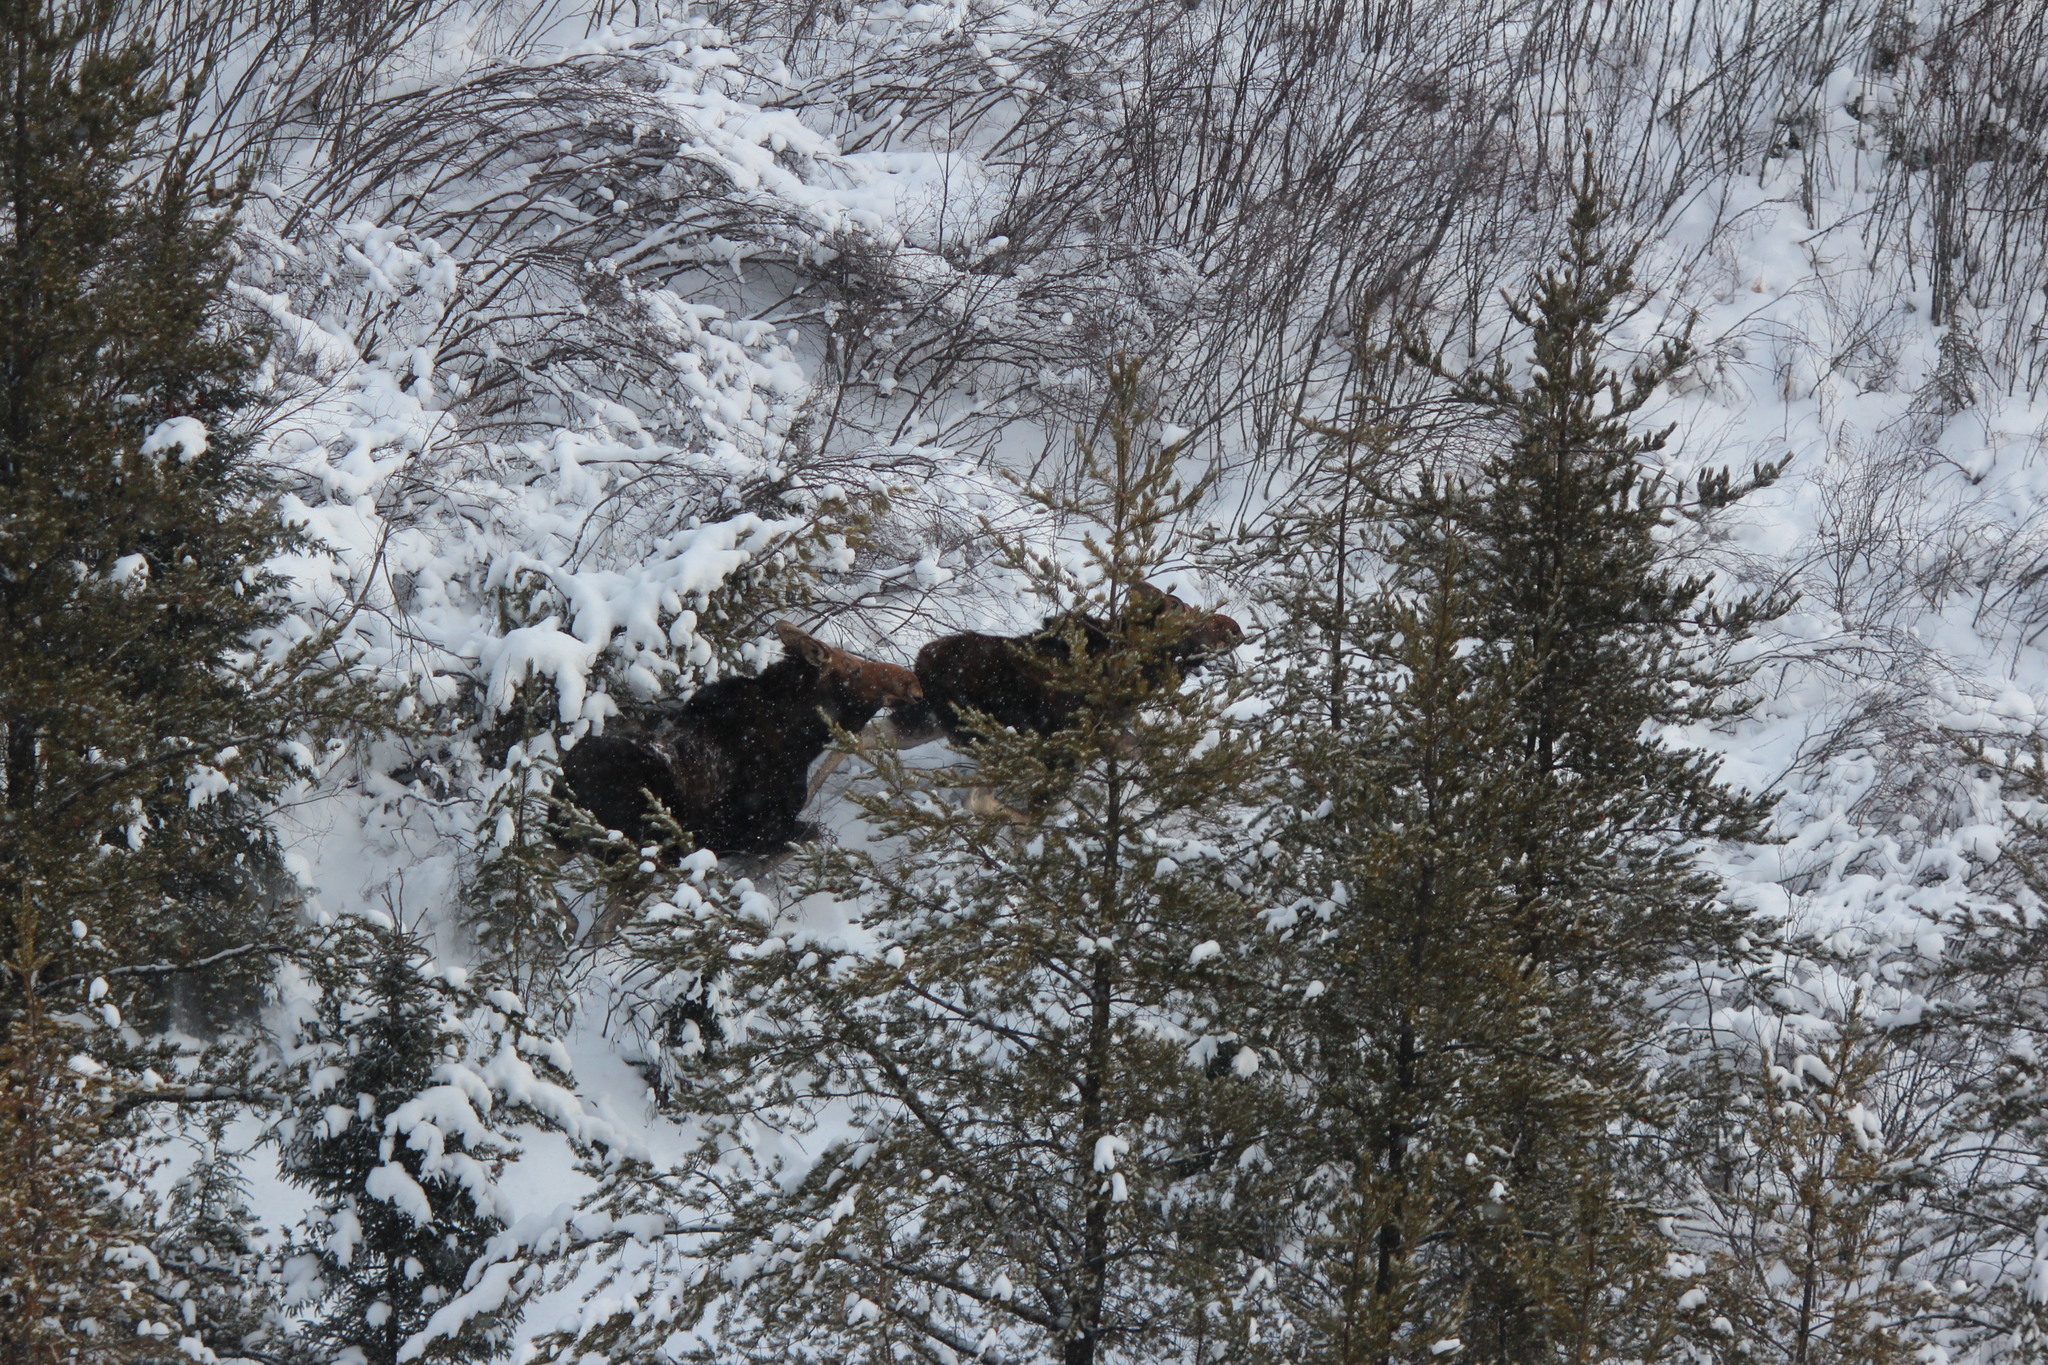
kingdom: Animalia
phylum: Chordata
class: Mammalia
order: Artiodactyla
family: Cervidae
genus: Alces
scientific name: Alces alces
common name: Moose
